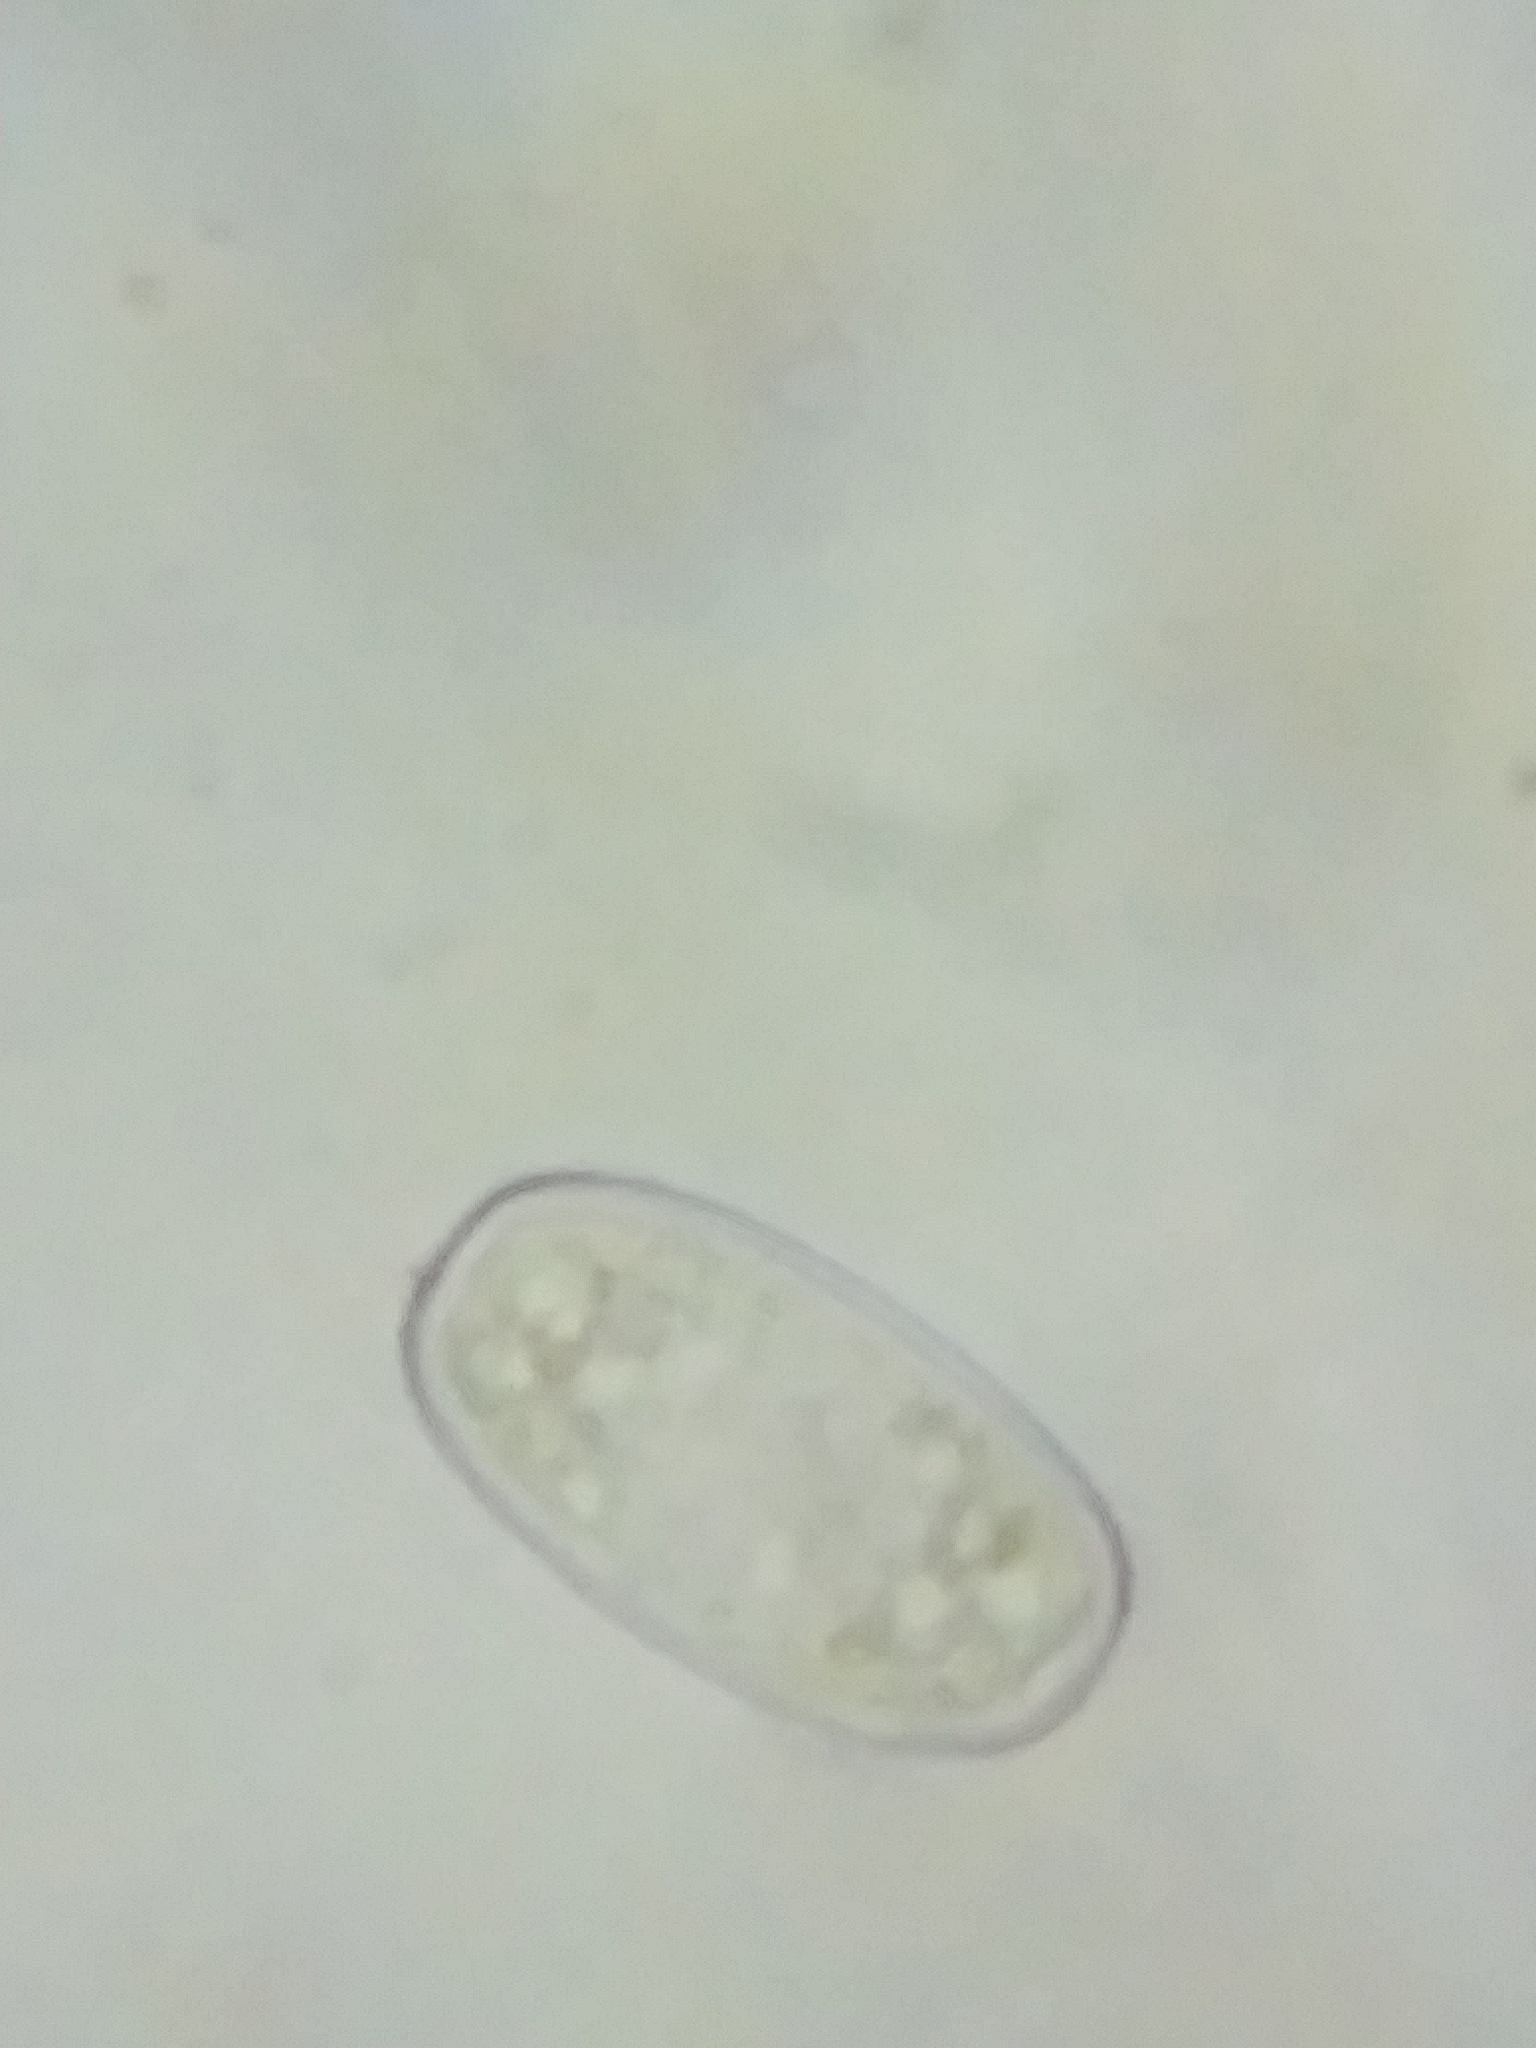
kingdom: Fungi
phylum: Ascomycota
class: Pezizomycetes
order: Pezizales
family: Sarcoscyphaceae
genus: Sarcoscypha
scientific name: Sarcoscypha austriaca
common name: Scarlet elfcup
